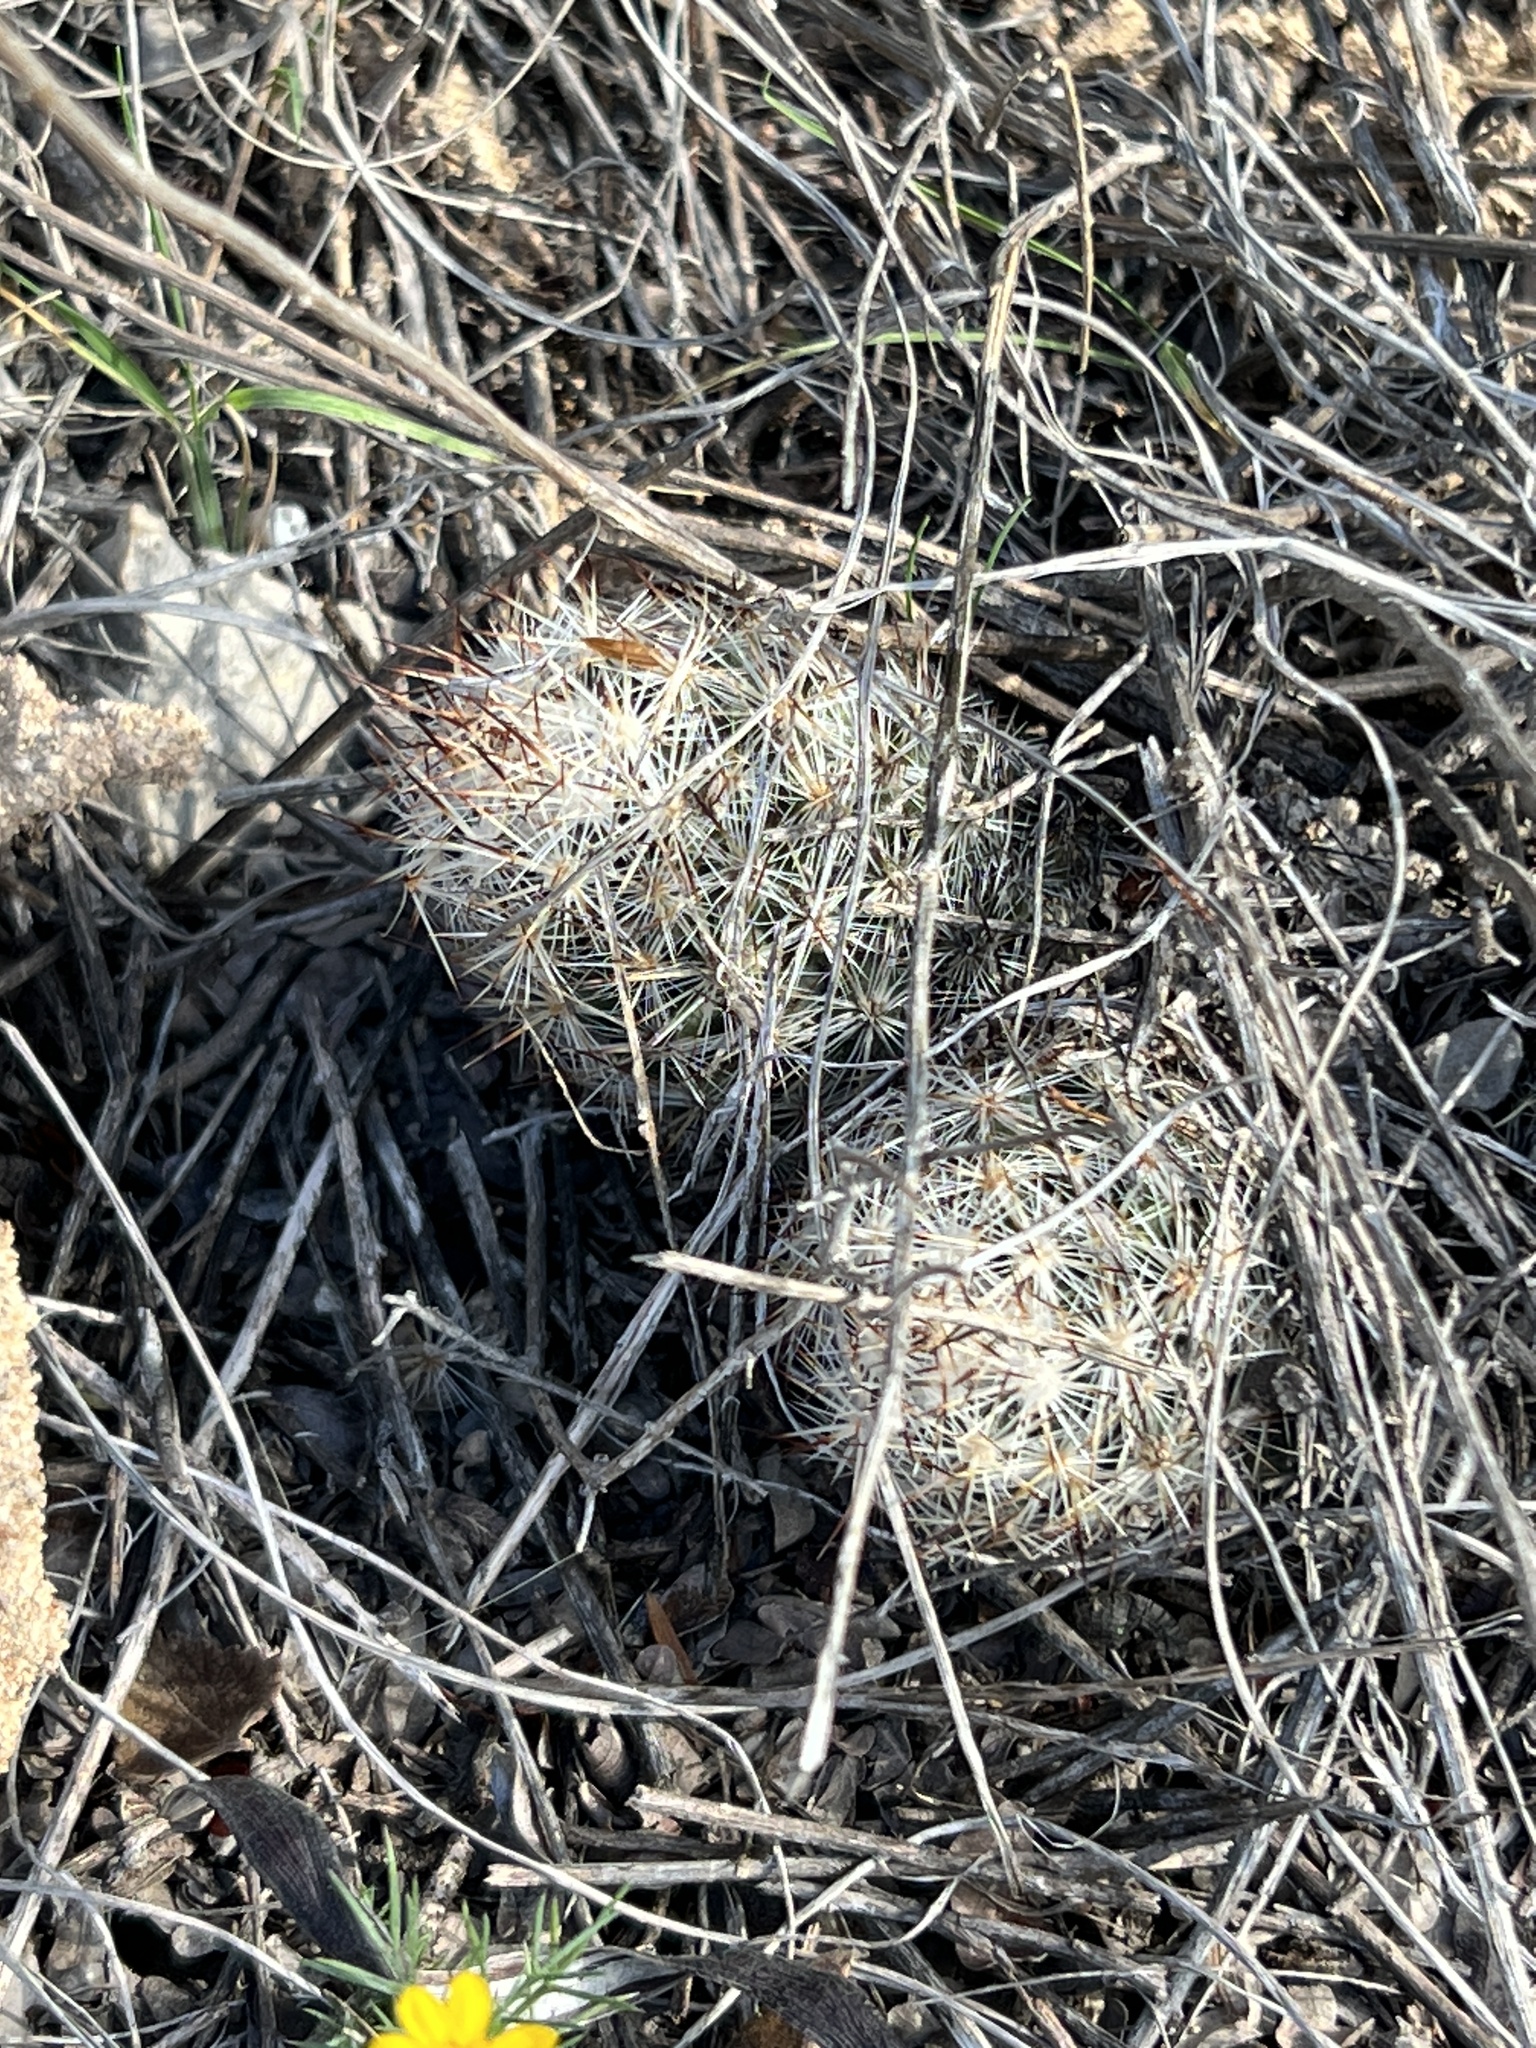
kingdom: Plantae
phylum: Tracheophyta
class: Magnoliopsida
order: Caryophyllales
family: Cactaceae
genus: Pelecyphora
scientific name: Pelecyphora emskoetteriana
